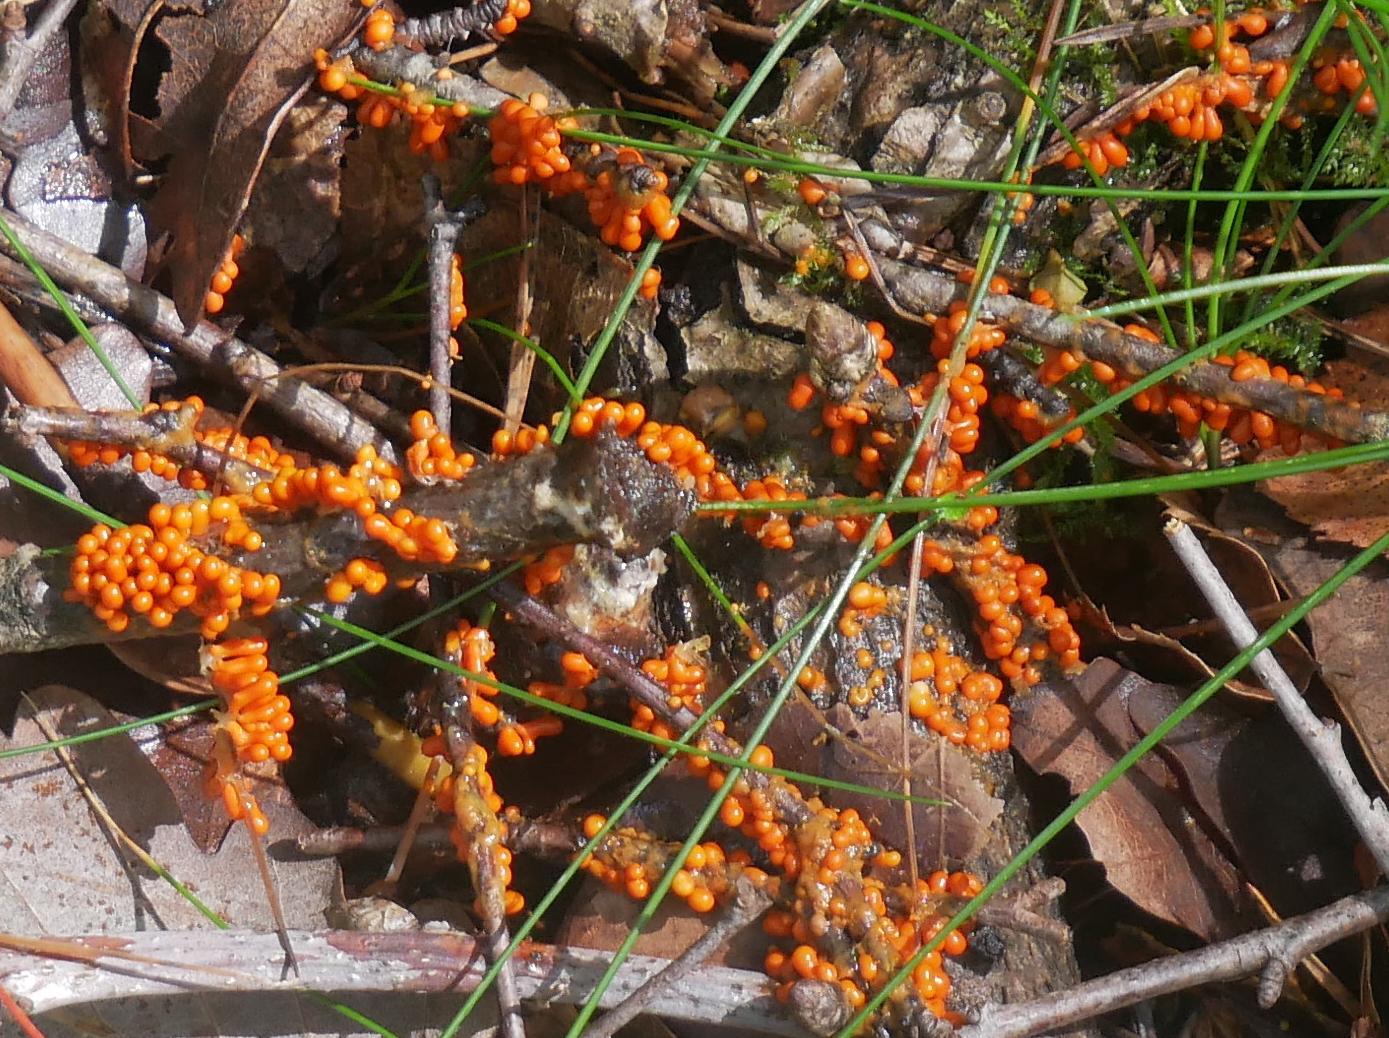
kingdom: Protozoa
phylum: Mycetozoa
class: Myxomycetes
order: Physarales
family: Physaraceae
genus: Leocarpus
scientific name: Leocarpus fragilis
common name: Insect-egg slime
